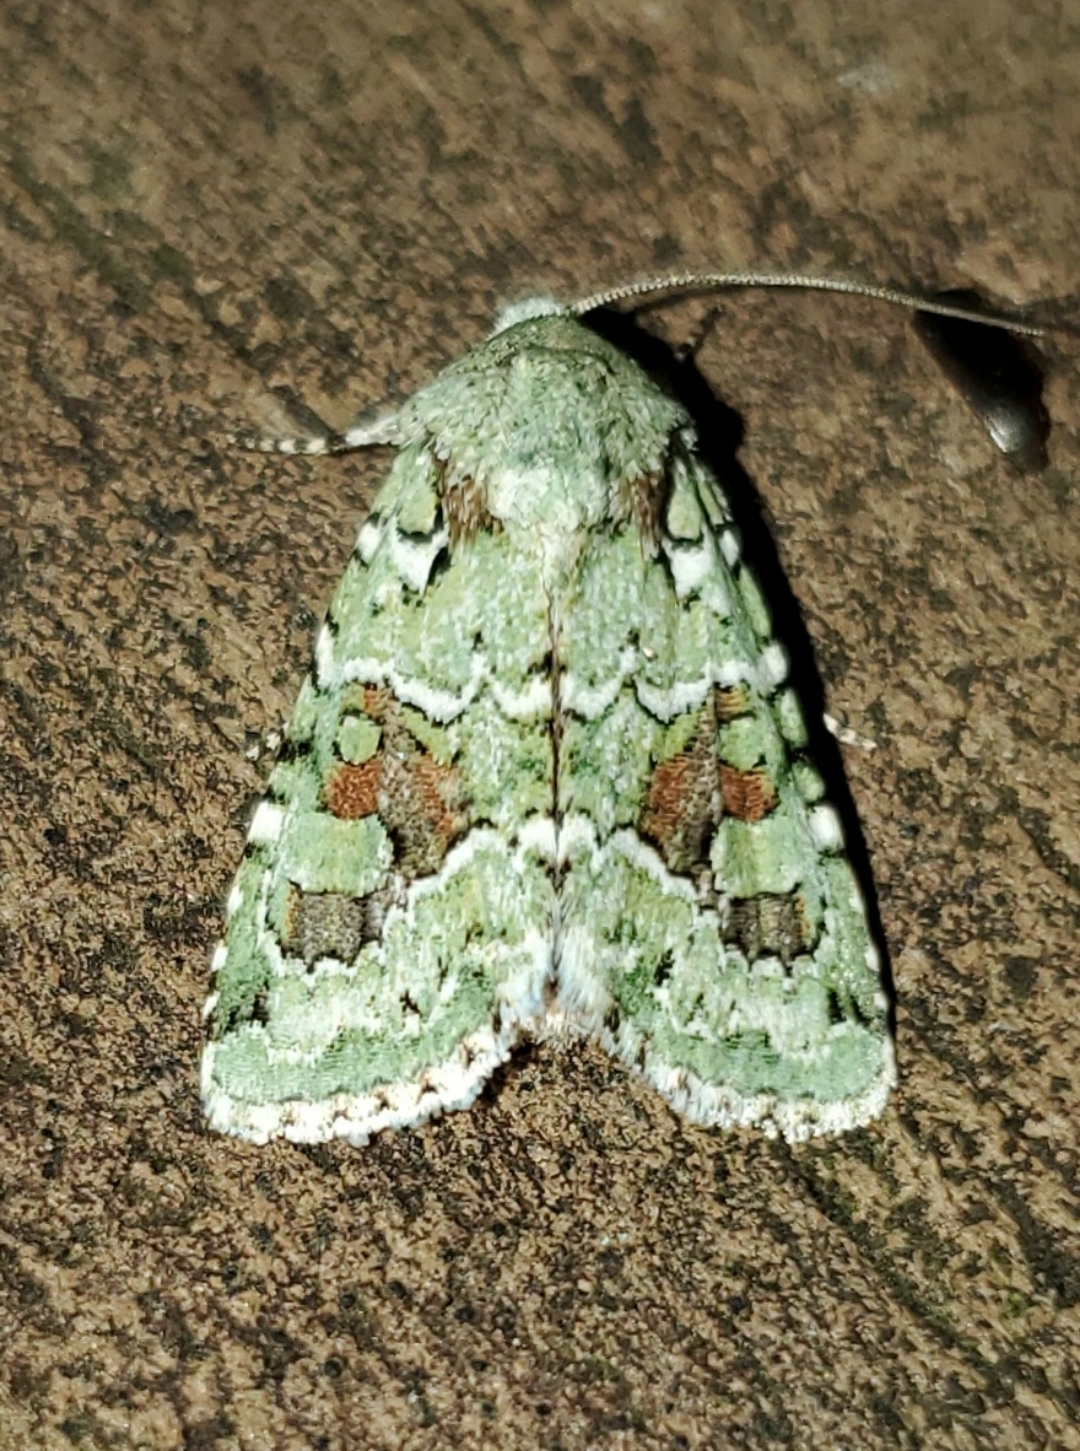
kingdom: Animalia
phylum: Arthropoda
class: Insecta
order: Lepidoptera
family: Noctuidae
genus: Lacinipolia
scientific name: Lacinipolia laudabilis
